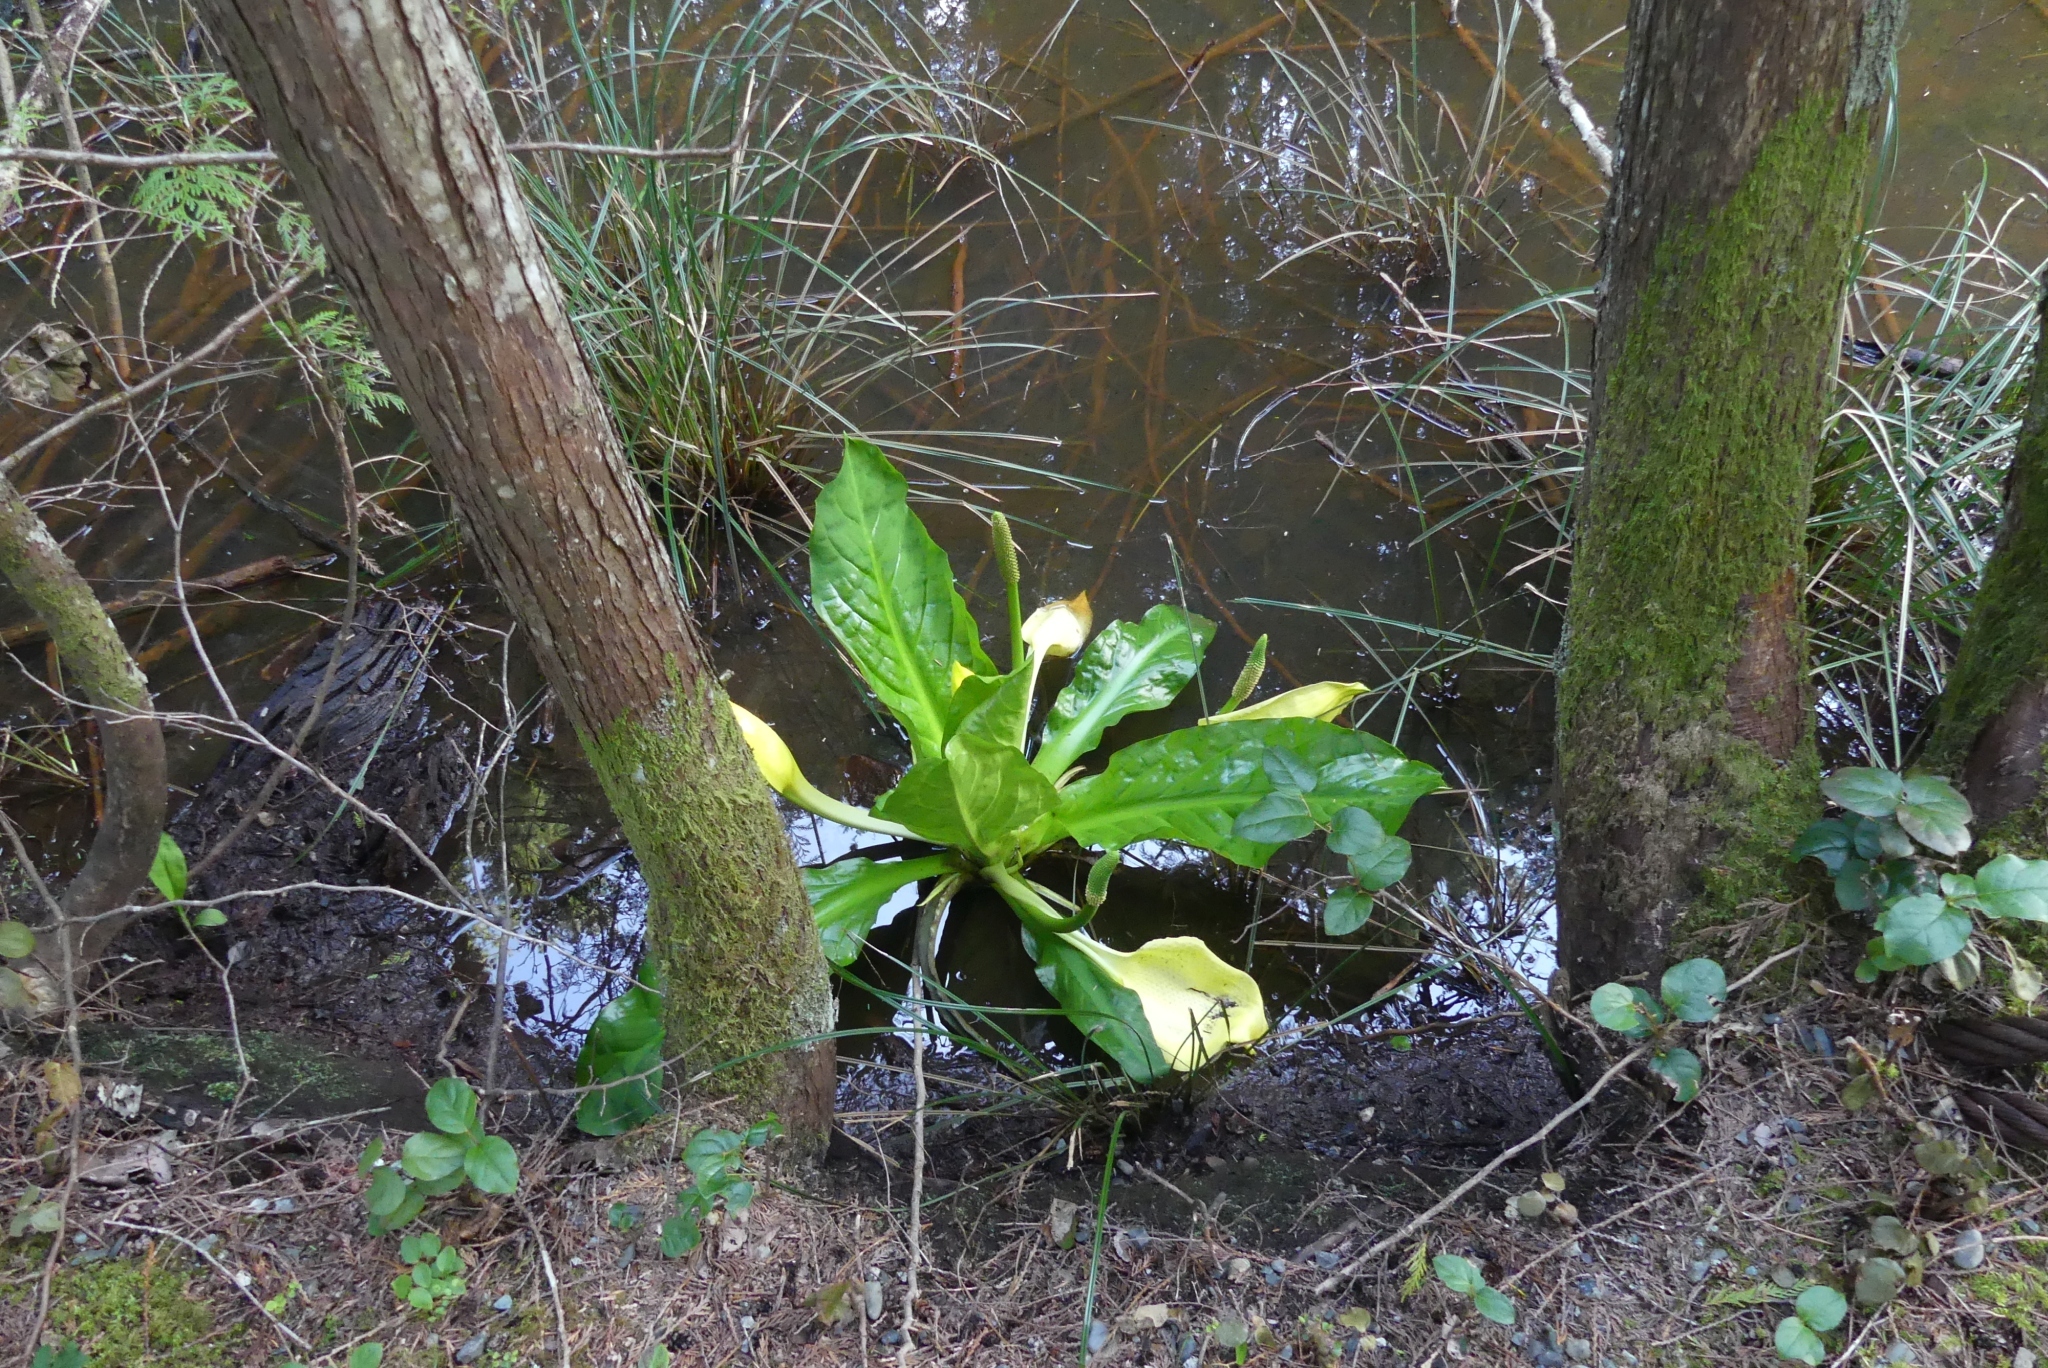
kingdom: Plantae
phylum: Tracheophyta
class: Liliopsida
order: Alismatales
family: Araceae
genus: Lysichiton
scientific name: Lysichiton americanus
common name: American skunk cabbage
